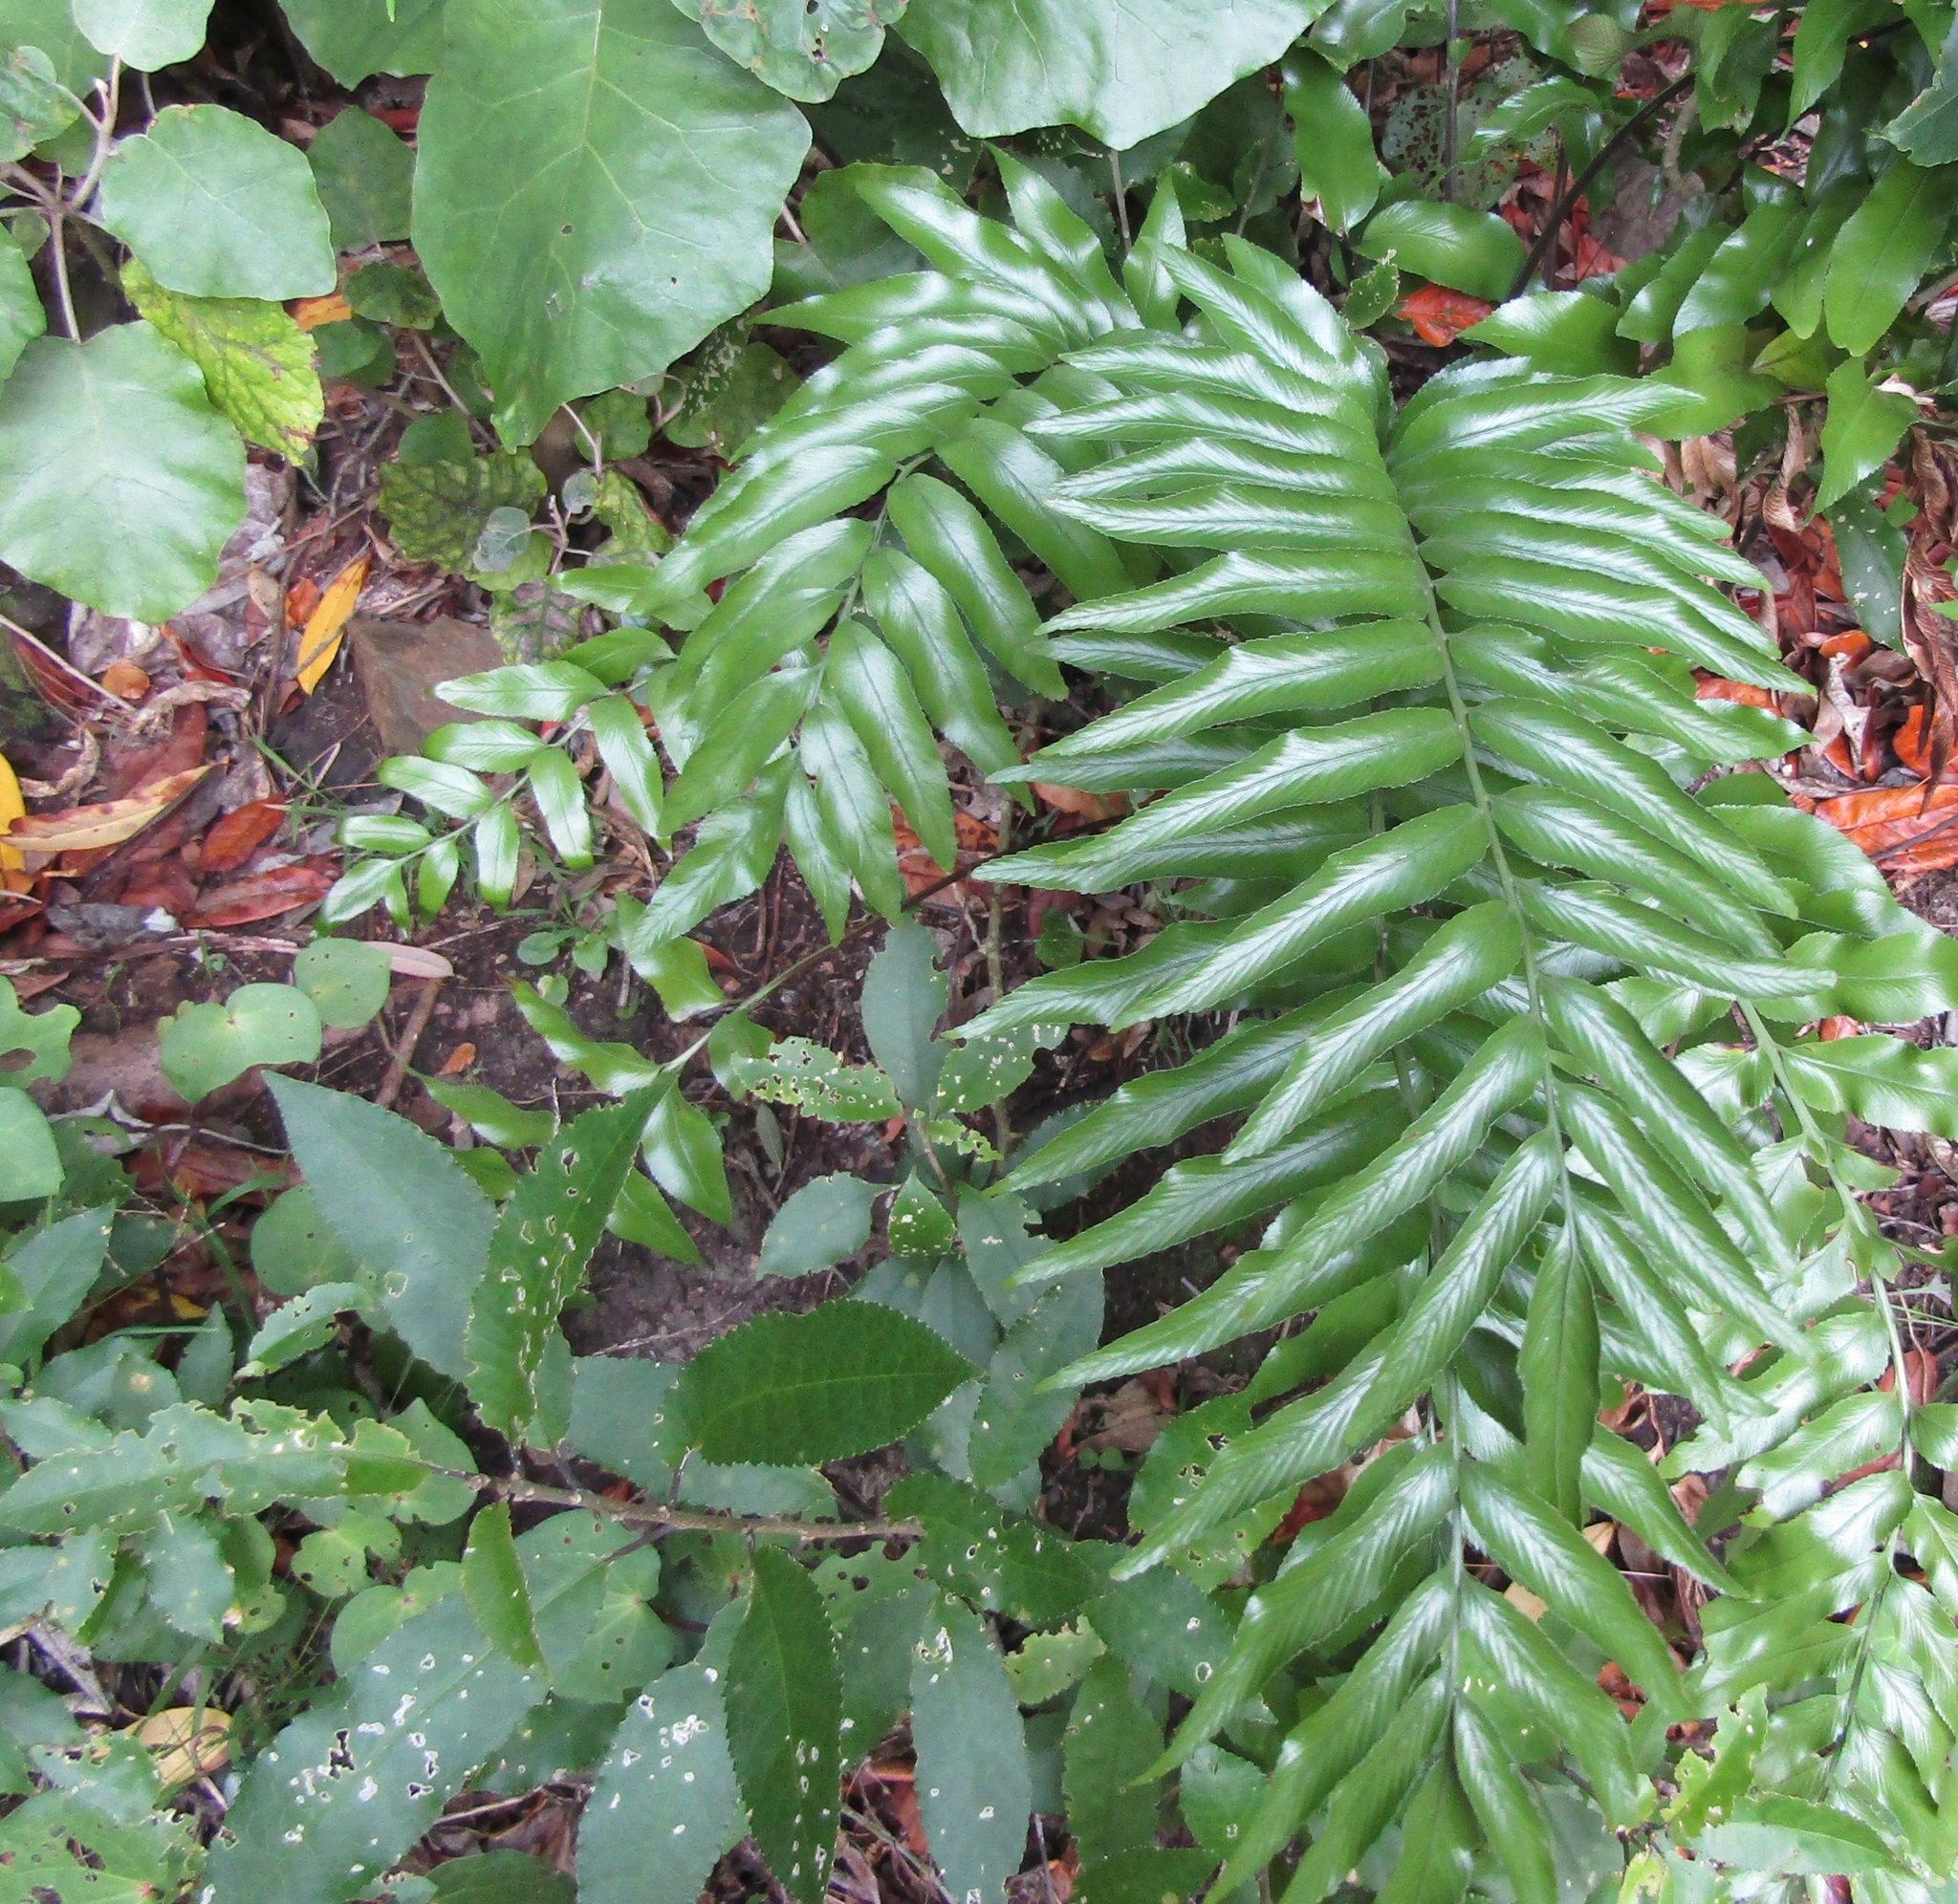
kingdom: Plantae
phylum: Tracheophyta
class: Polypodiopsida
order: Polypodiales
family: Aspleniaceae
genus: Asplenium
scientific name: Asplenium oblongifolium
